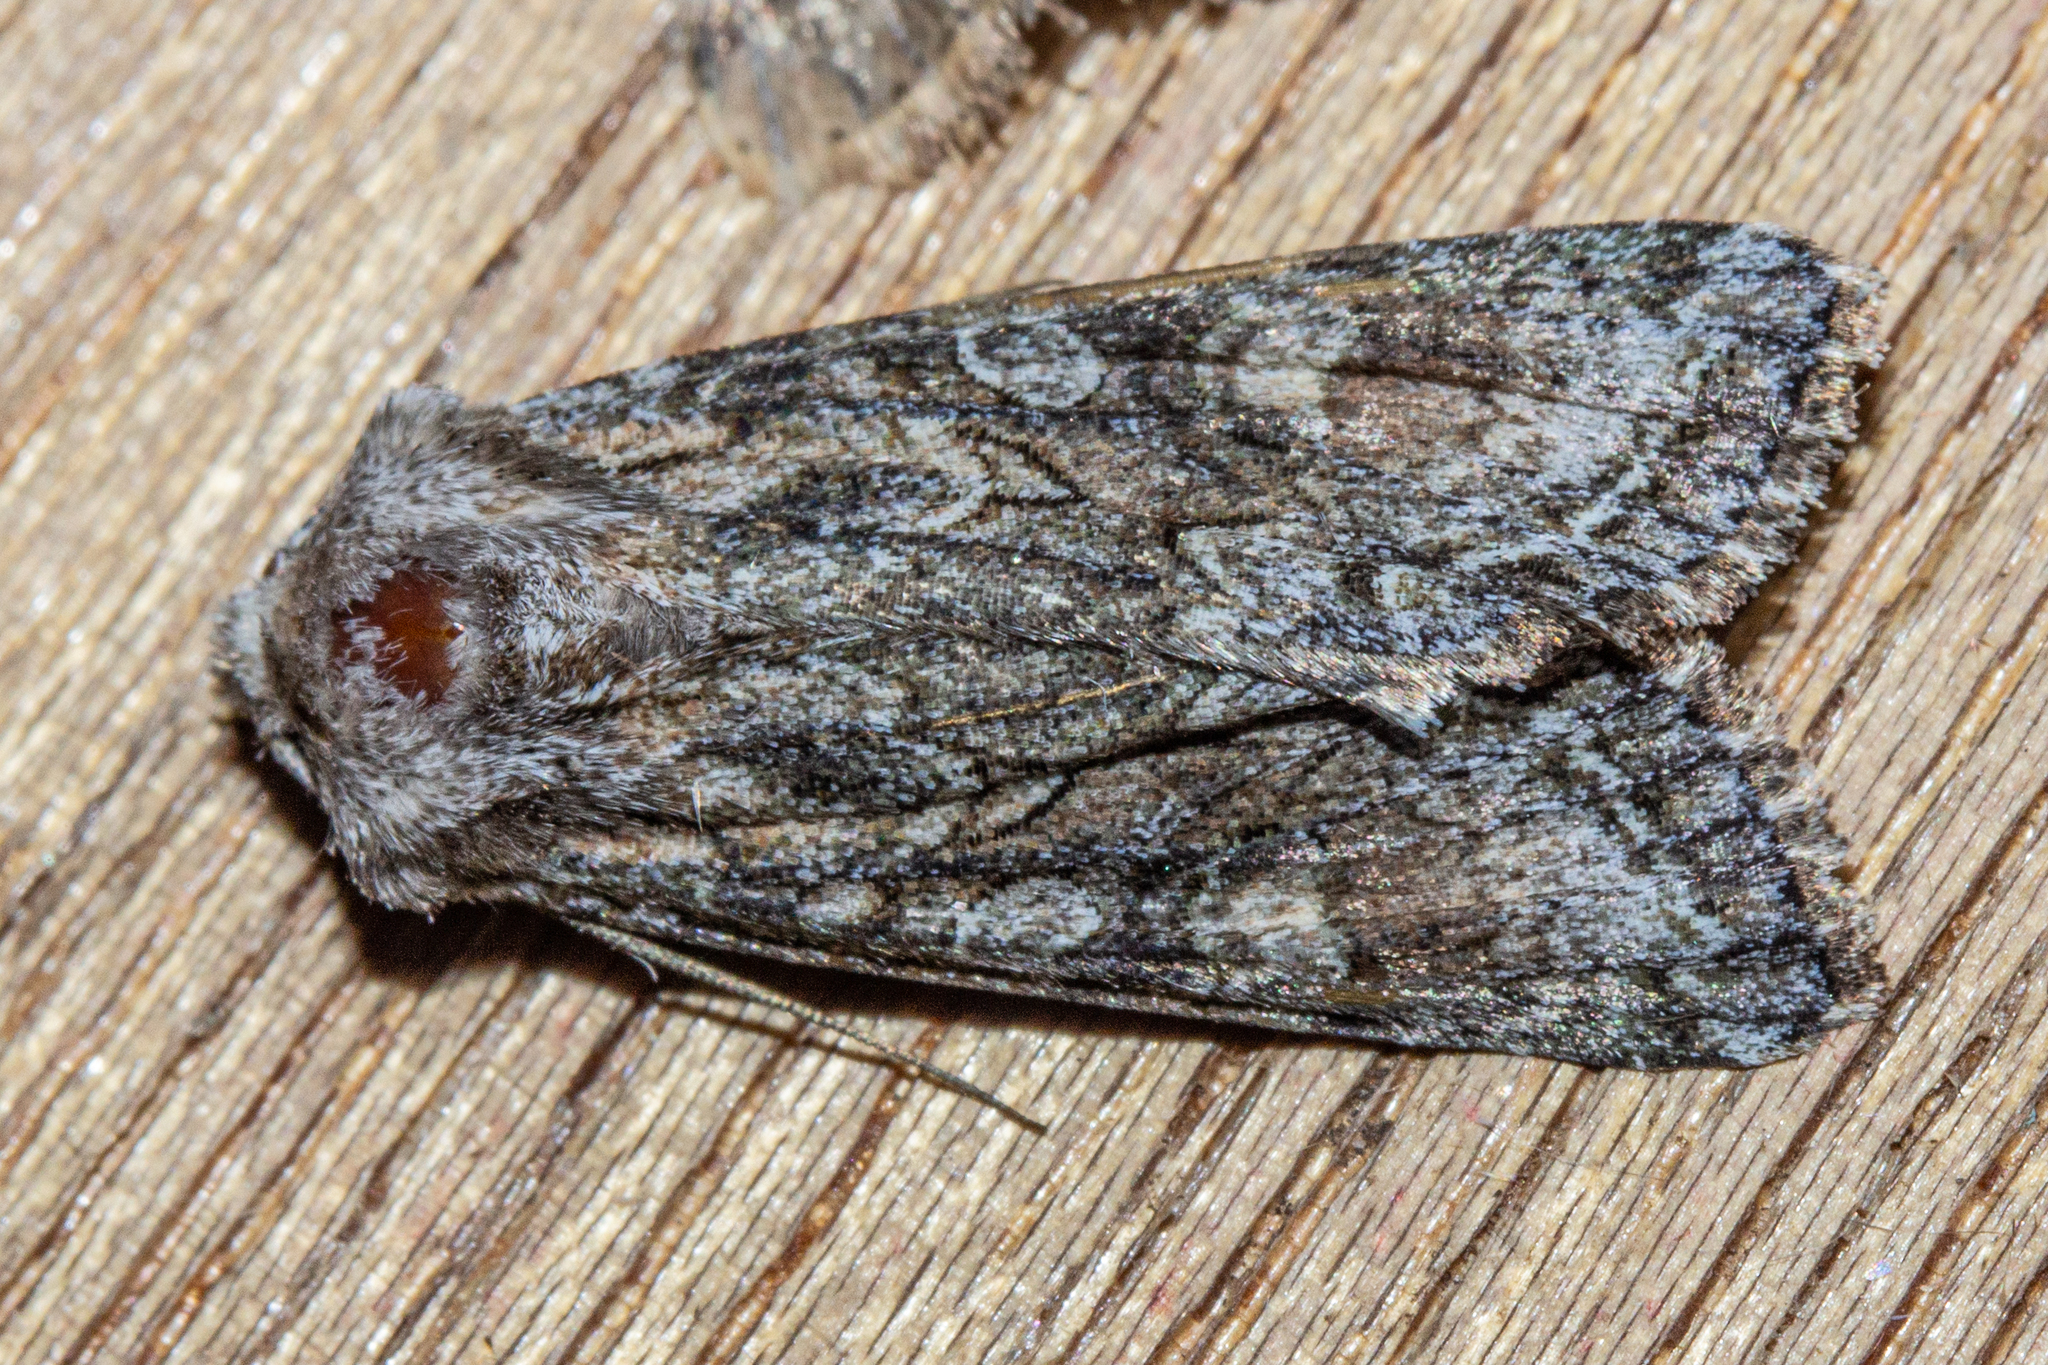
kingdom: Animalia
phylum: Arthropoda
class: Insecta
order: Lepidoptera
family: Noctuidae
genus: Ichneutica
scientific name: Ichneutica mutans
